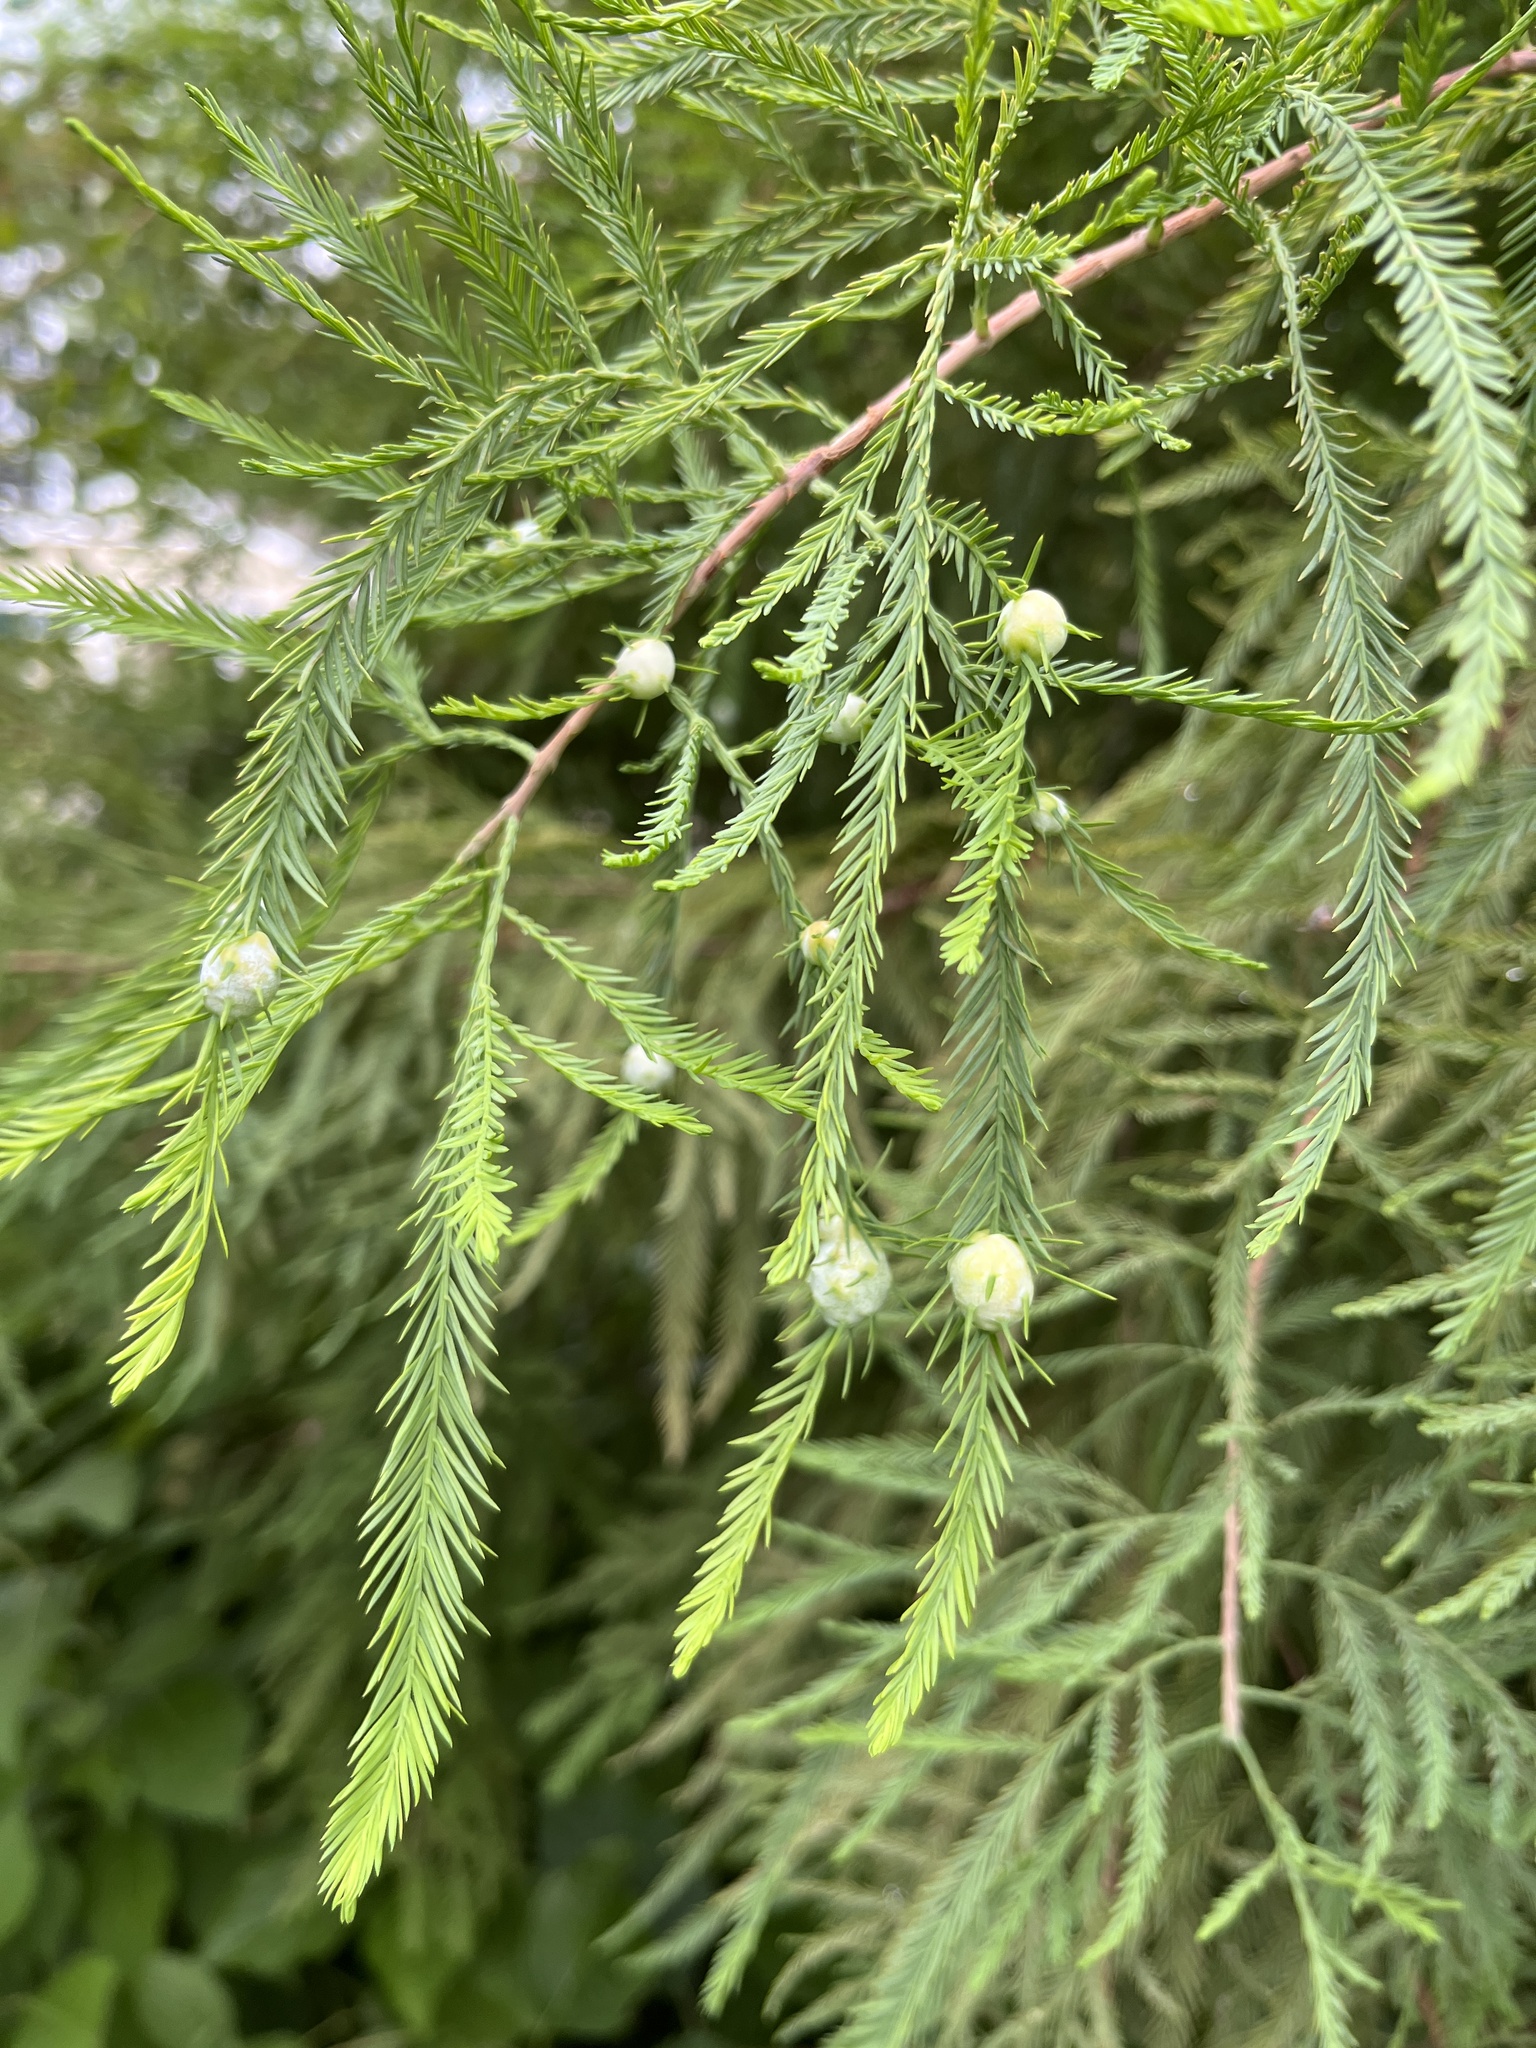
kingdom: Animalia
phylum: Arthropoda
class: Insecta
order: Diptera
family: Cecidomyiidae
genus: Taxodiomyia
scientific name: Taxodiomyia cupressiananassa
